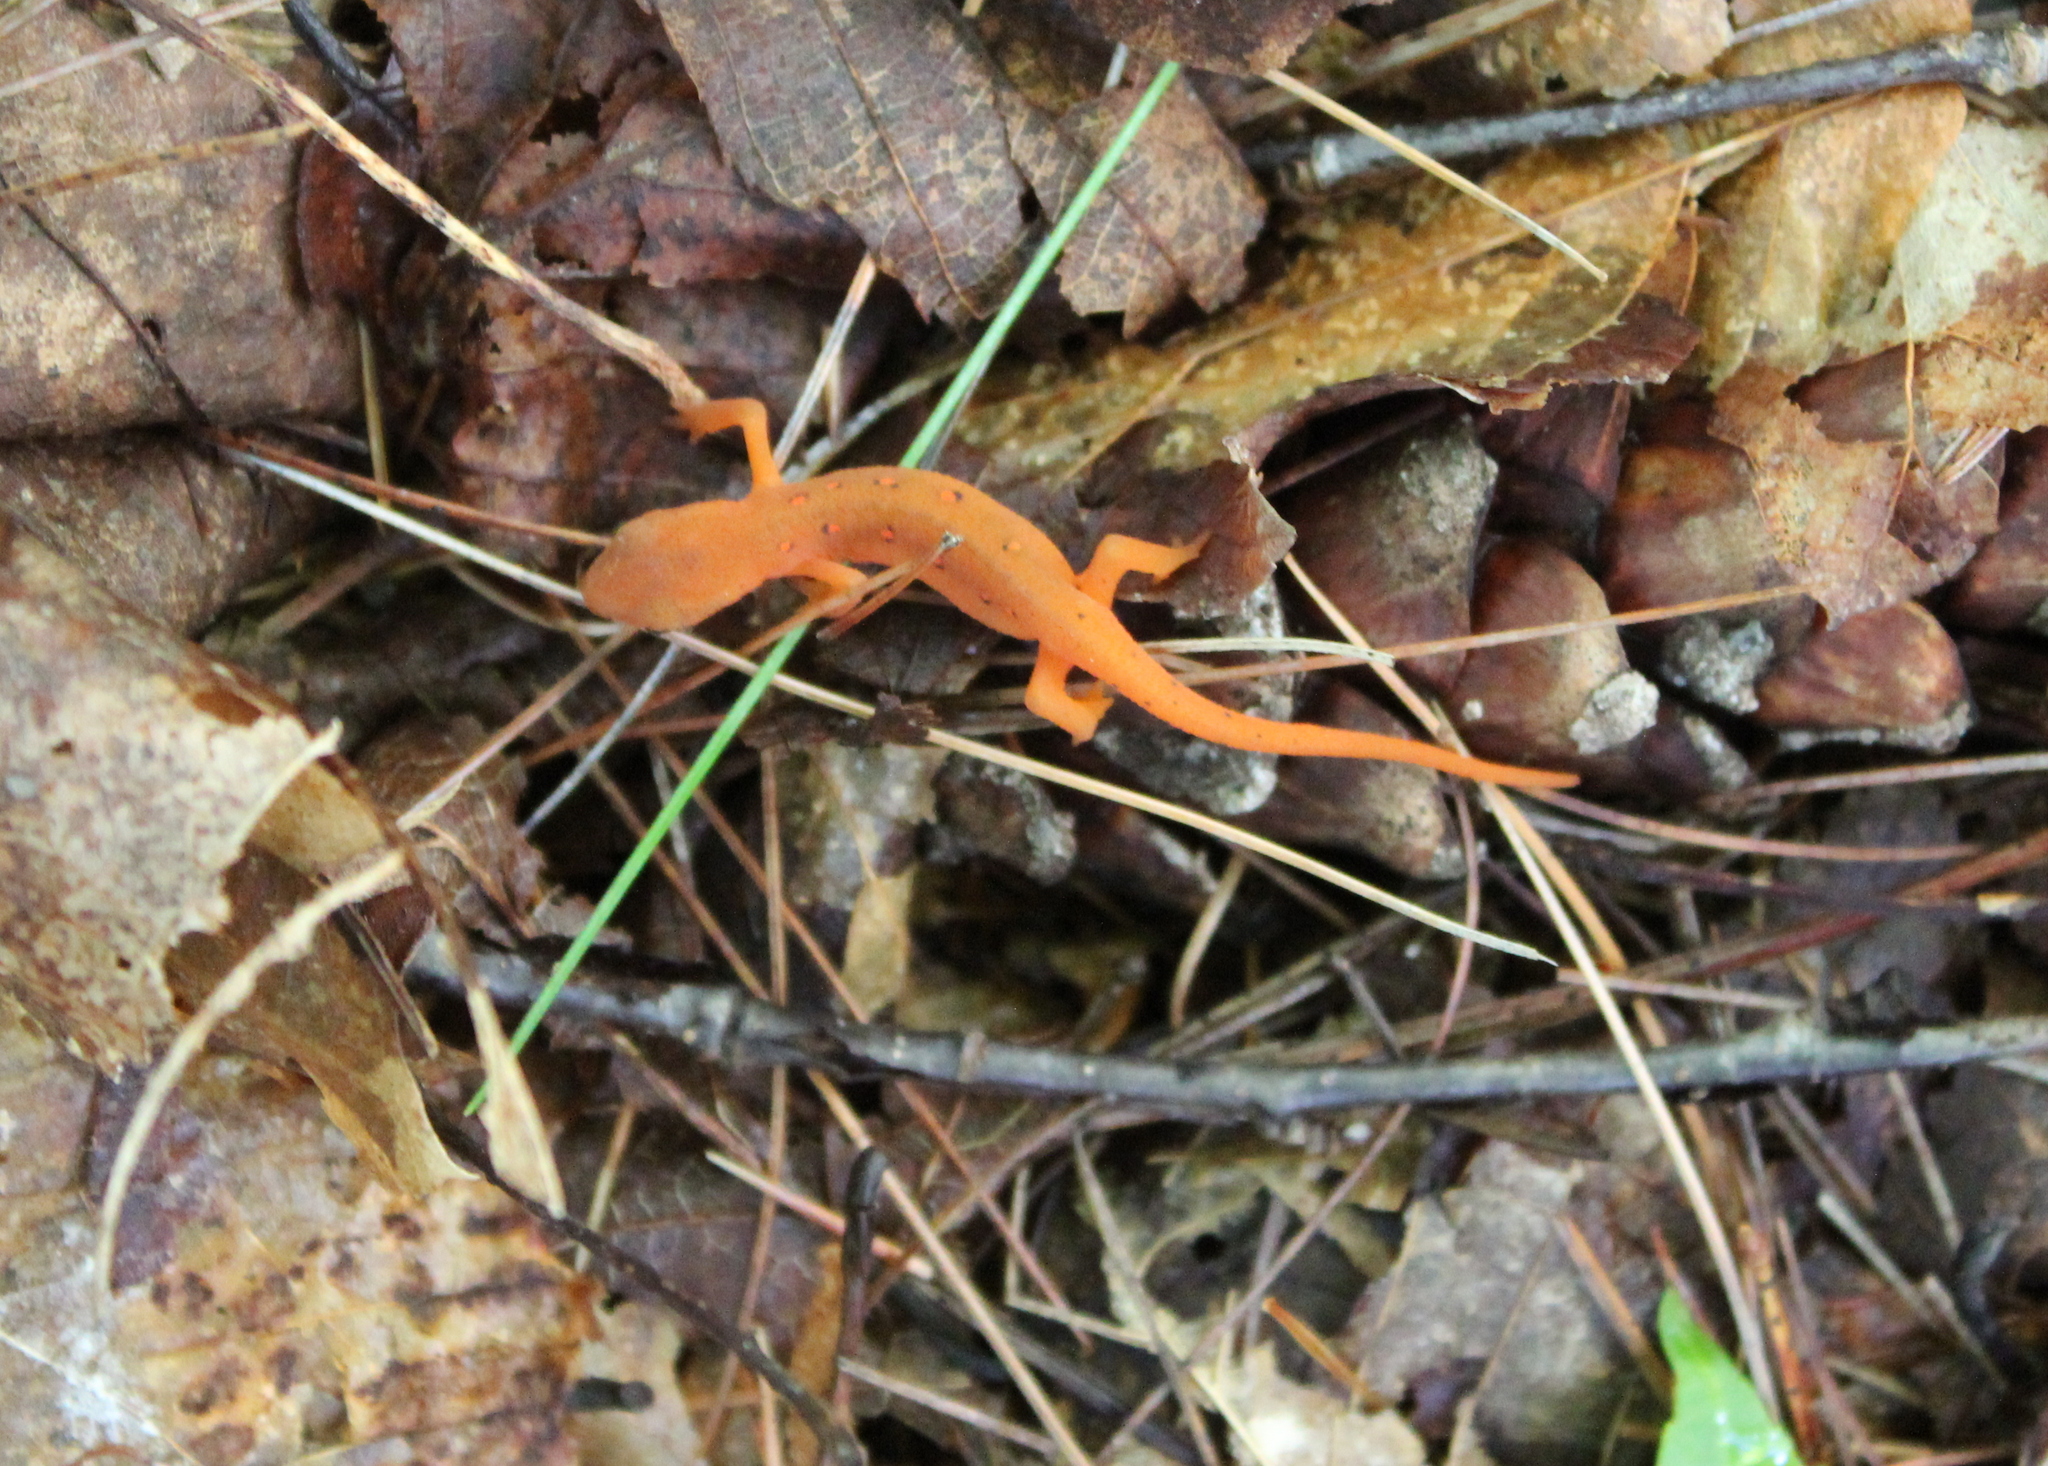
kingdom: Animalia
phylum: Chordata
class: Amphibia
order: Caudata
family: Salamandridae
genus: Notophthalmus
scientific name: Notophthalmus viridescens
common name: Eastern newt
